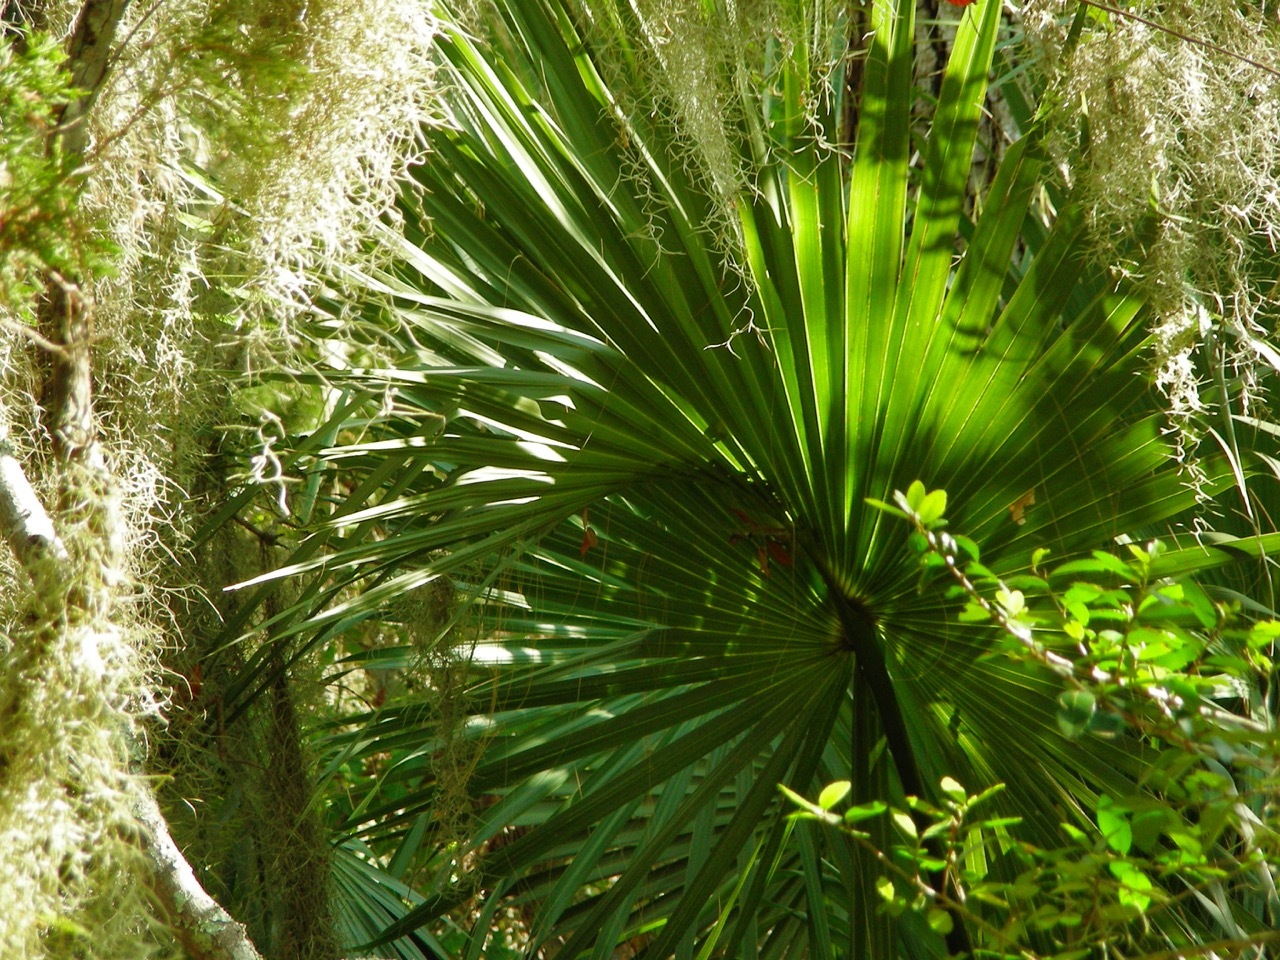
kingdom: Plantae
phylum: Tracheophyta
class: Liliopsida
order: Poales
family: Bromeliaceae
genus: Tillandsia
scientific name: Tillandsia usneoides
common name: Spanish moss
